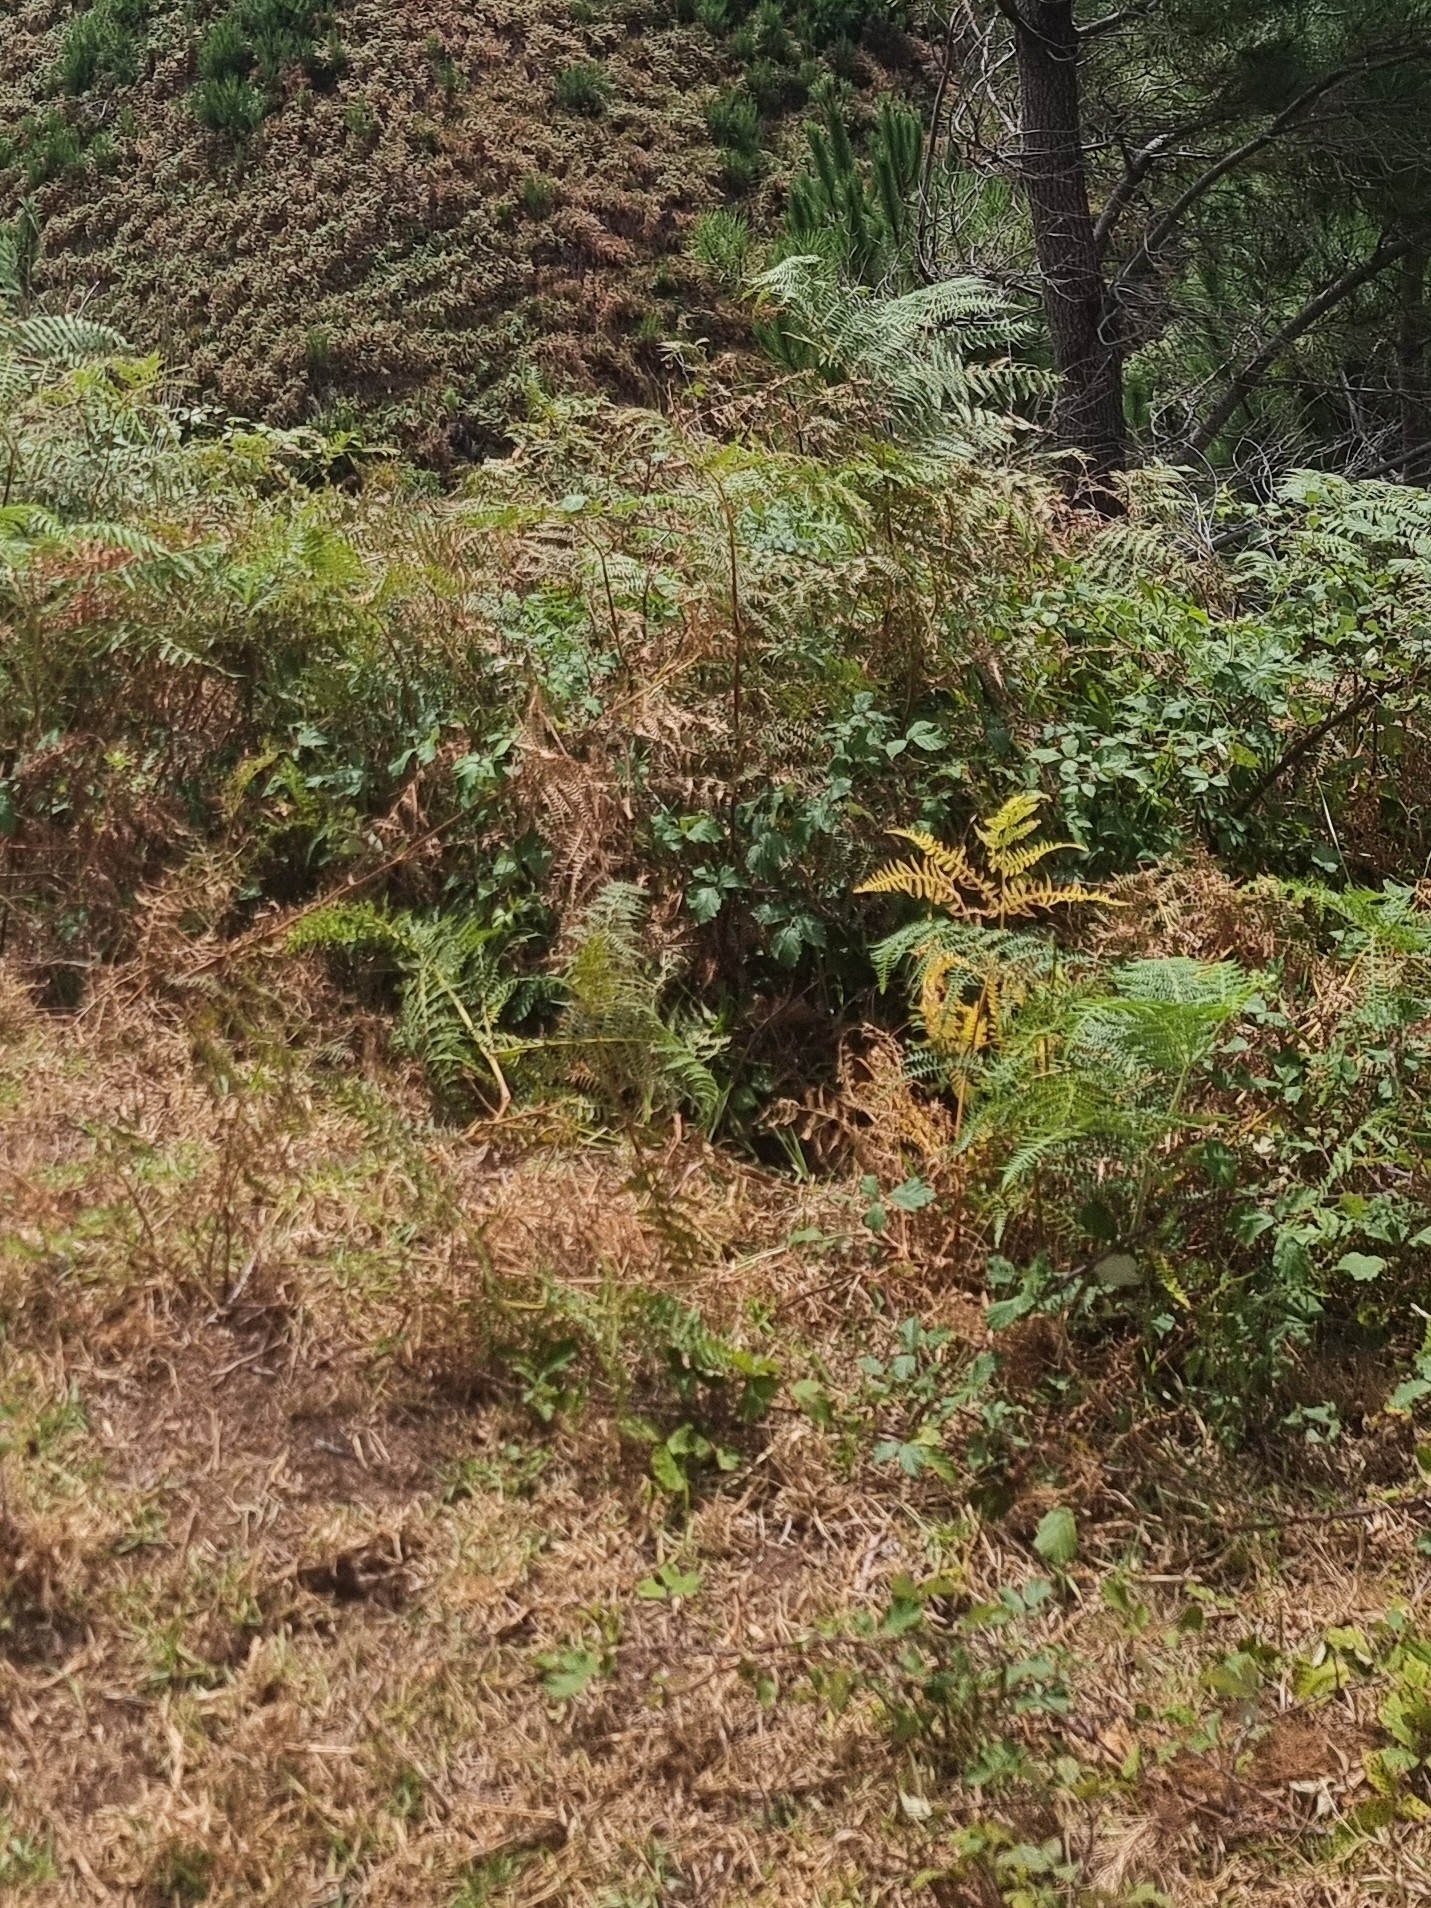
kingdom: Plantae
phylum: Tracheophyta
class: Polypodiopsida
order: Polypodiales
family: Dennstaedtiaceae
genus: Pteridium
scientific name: Pteridium aquilinum
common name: Bracken
